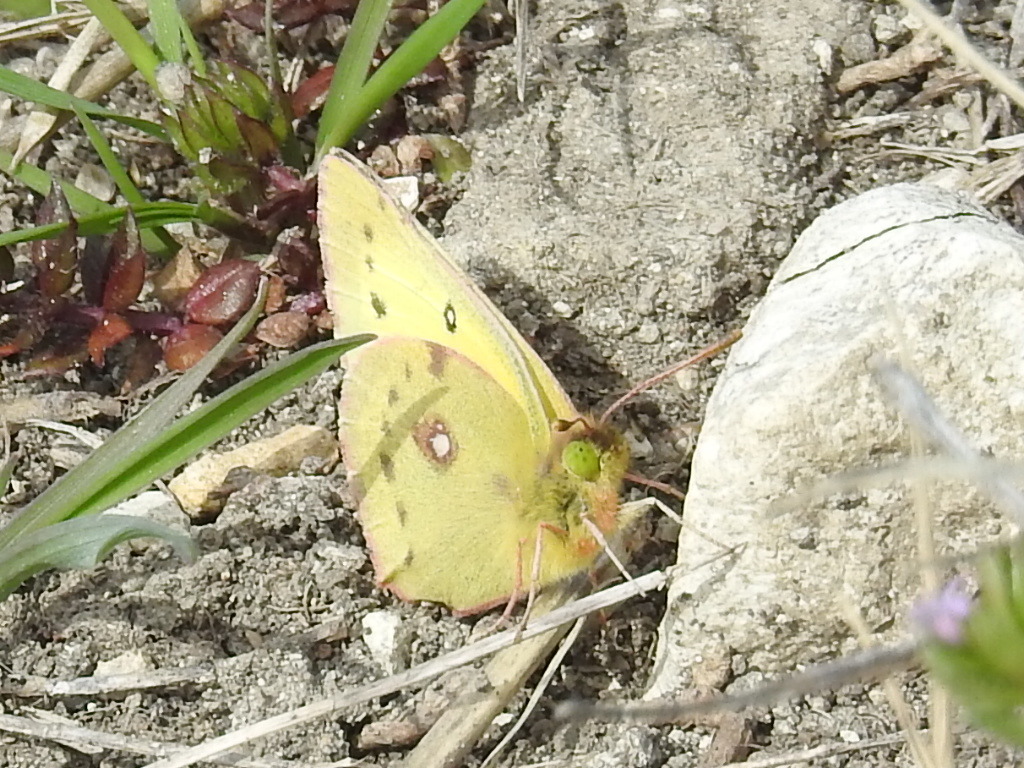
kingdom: Animalia
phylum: Arthropoda
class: Insecta
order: Lepidoptera
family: Pieridae
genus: Colias
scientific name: Colias eurytheme
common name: Alfalfa butterfly
